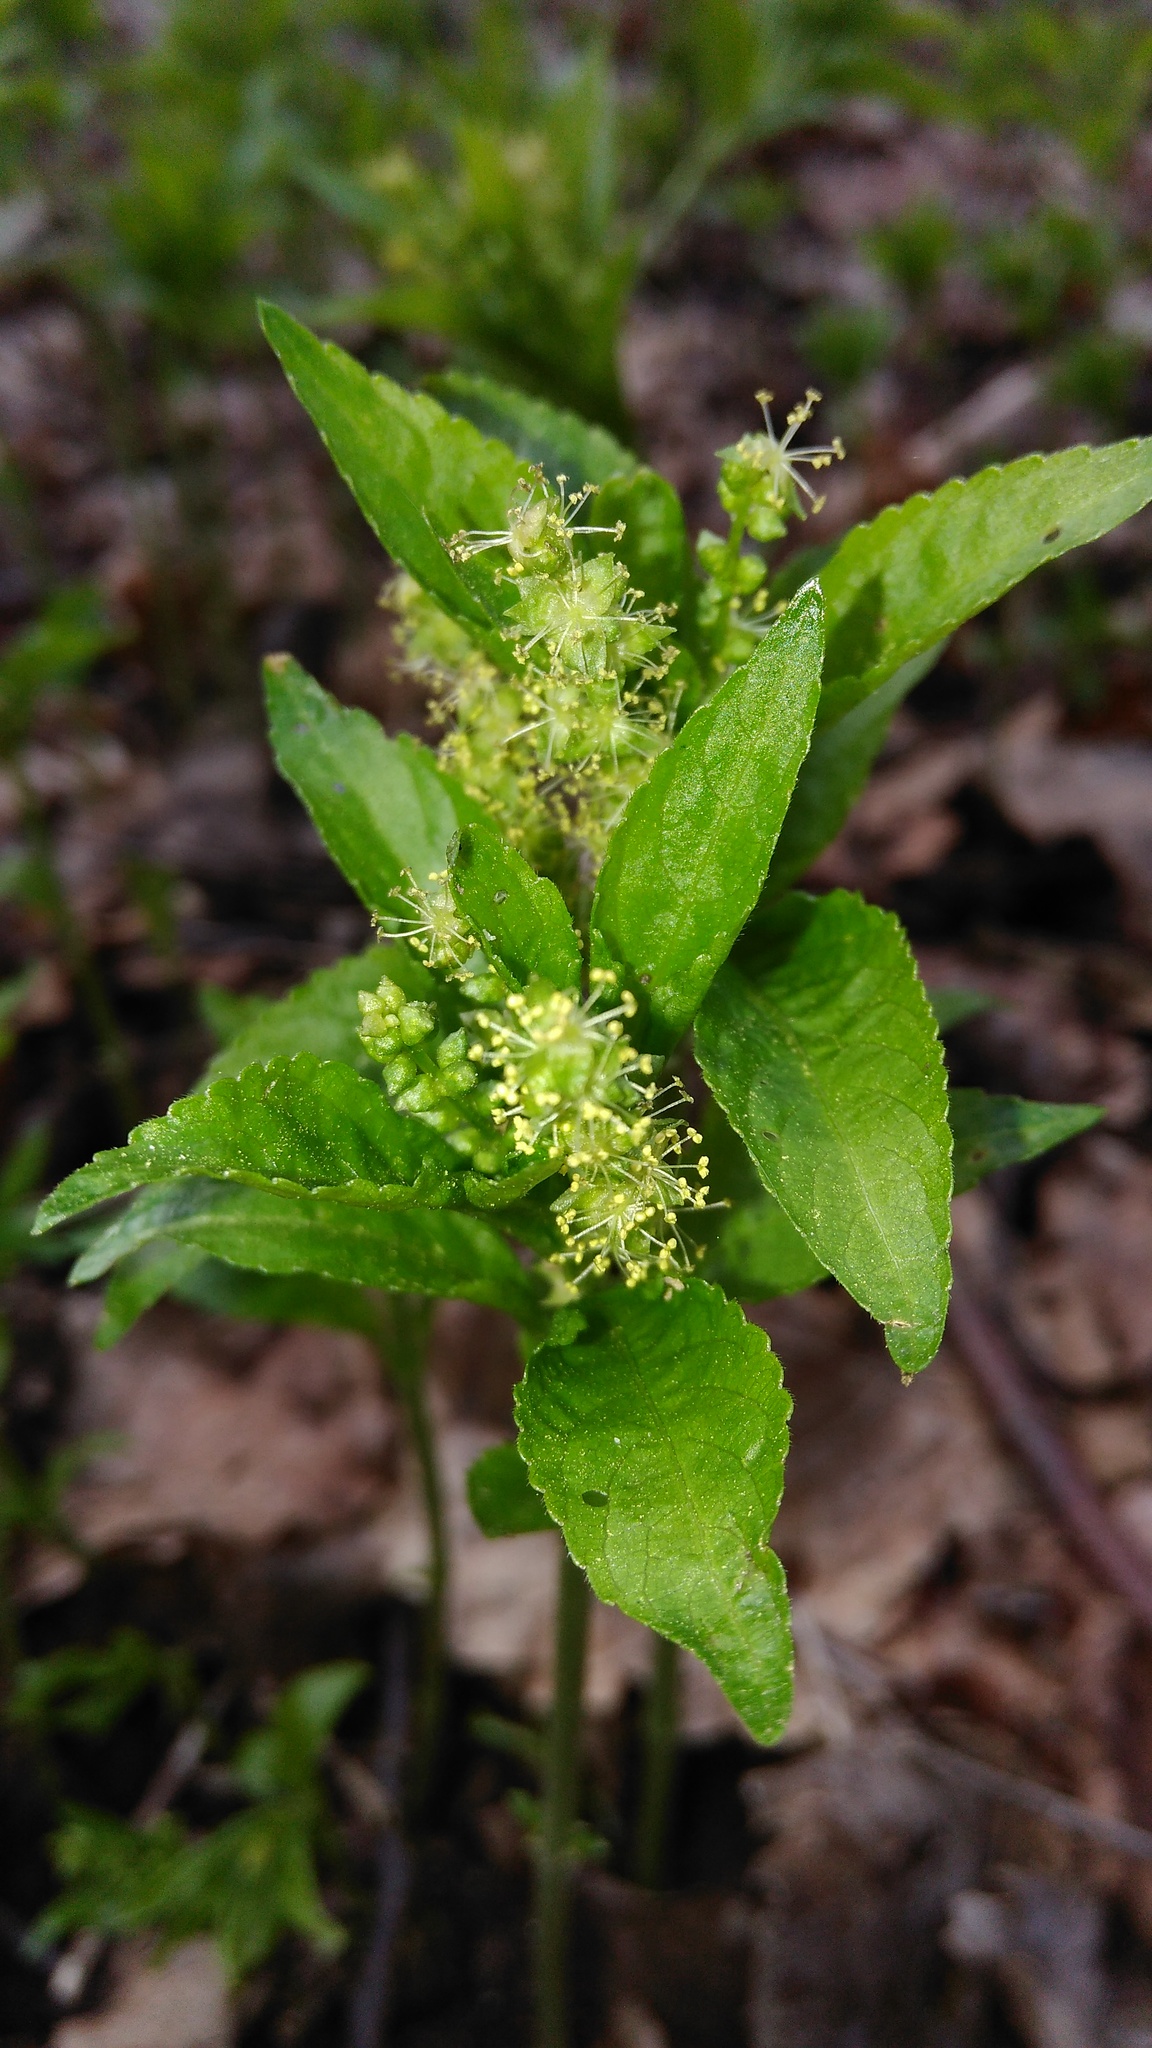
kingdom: Plantae
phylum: Tracheophyta
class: Magnoliopsida
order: Malpighiales
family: Euphorbiaceae
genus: Mercurialis
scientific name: Mercurialis perennis
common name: Dog mercury
